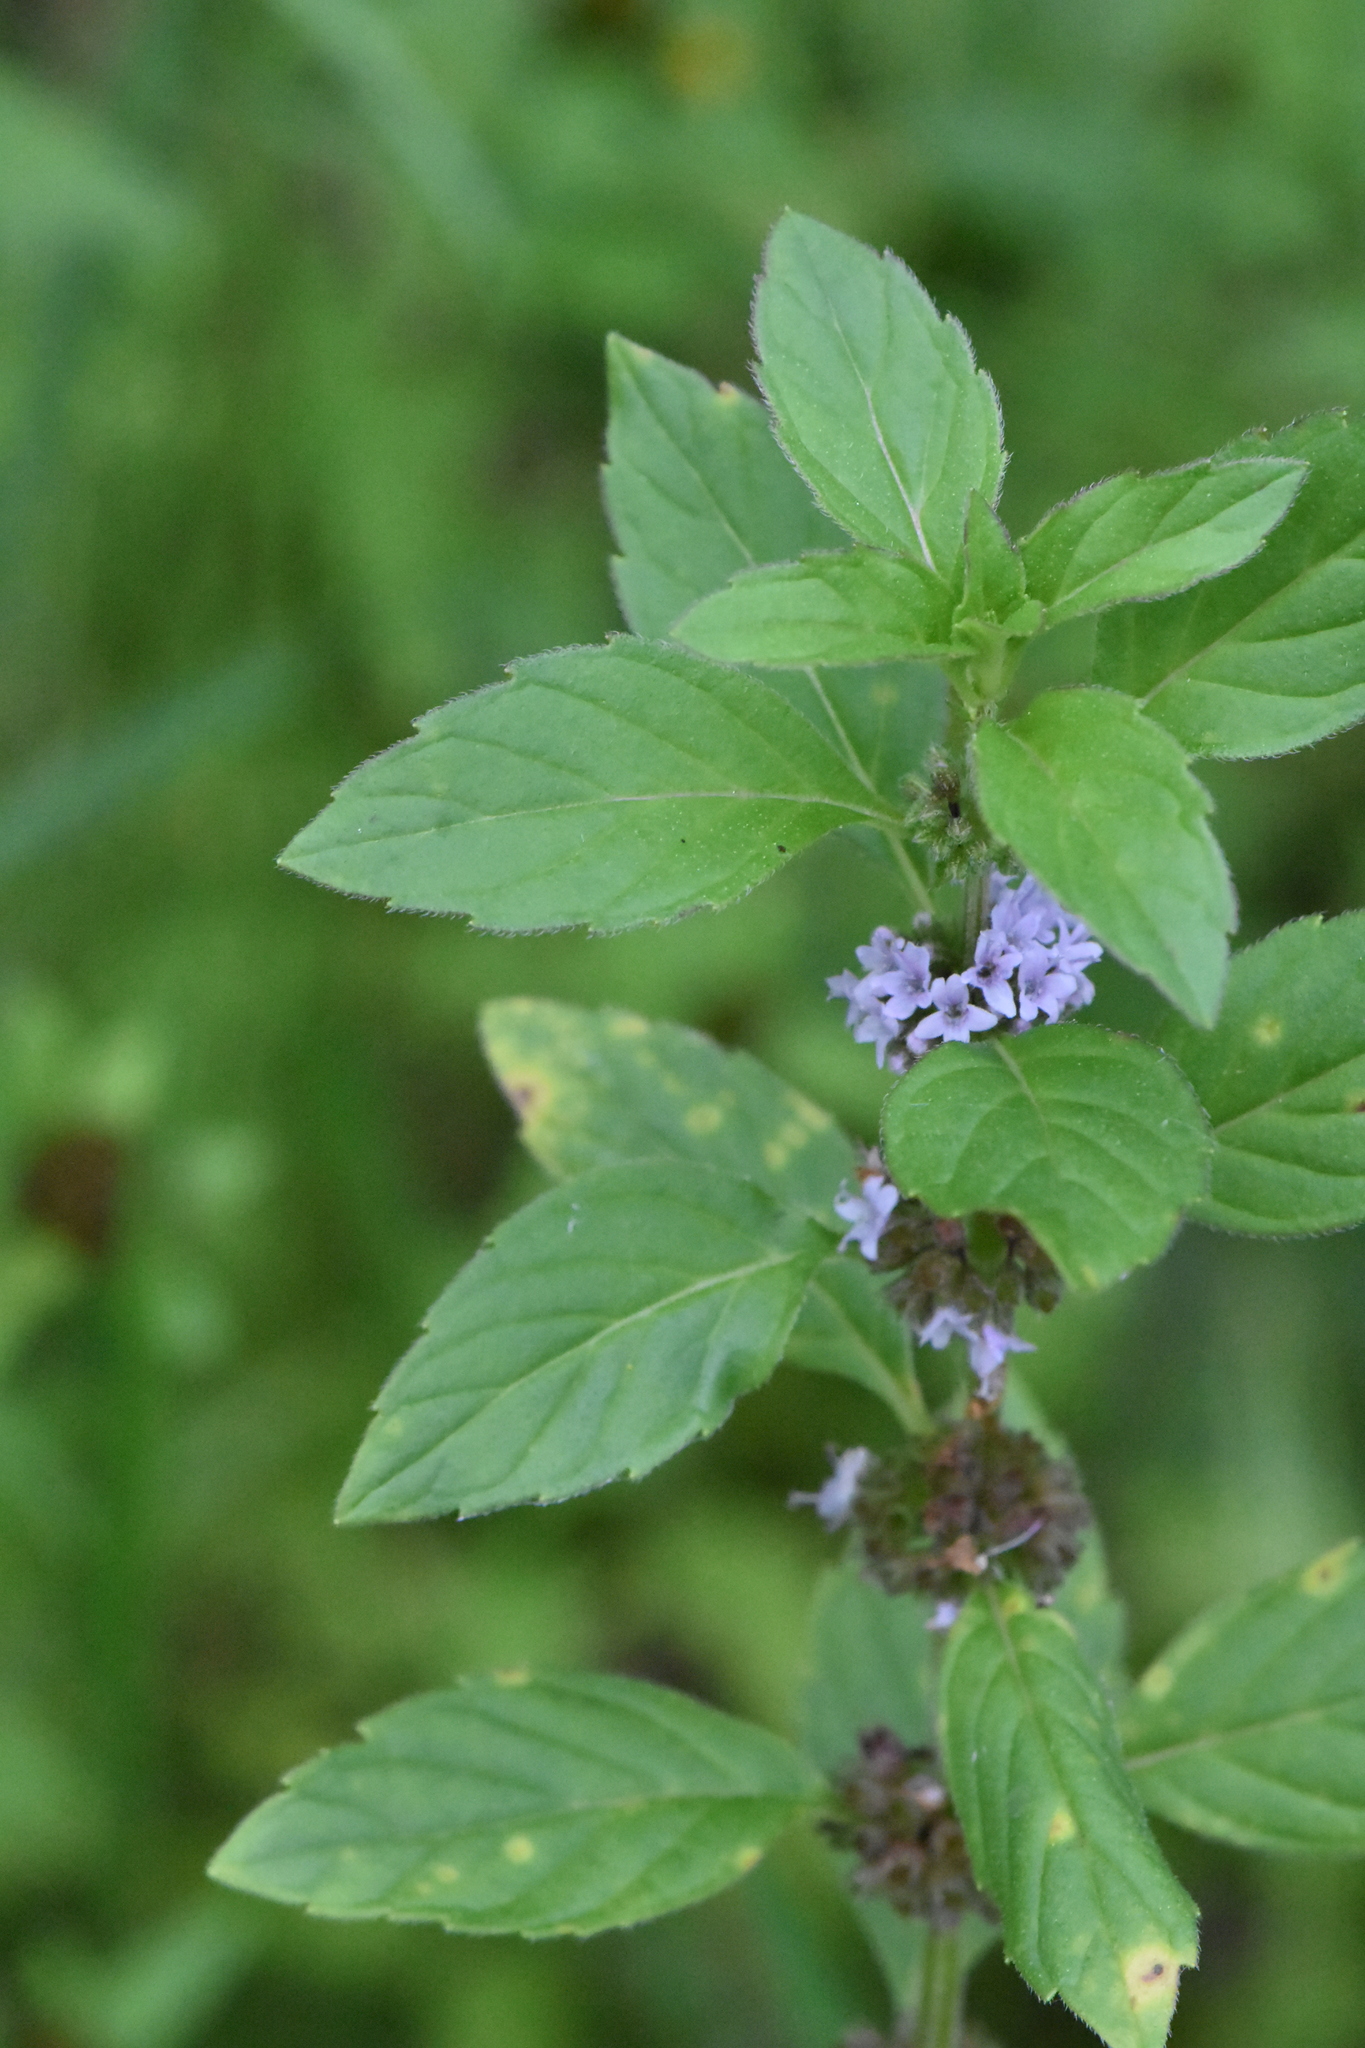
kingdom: Plantae
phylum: Tracheophyta
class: Magnoliopsida
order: Lamiales
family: Lamiaceae
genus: Mentha
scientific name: Mentha arvensis
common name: Corn mint
